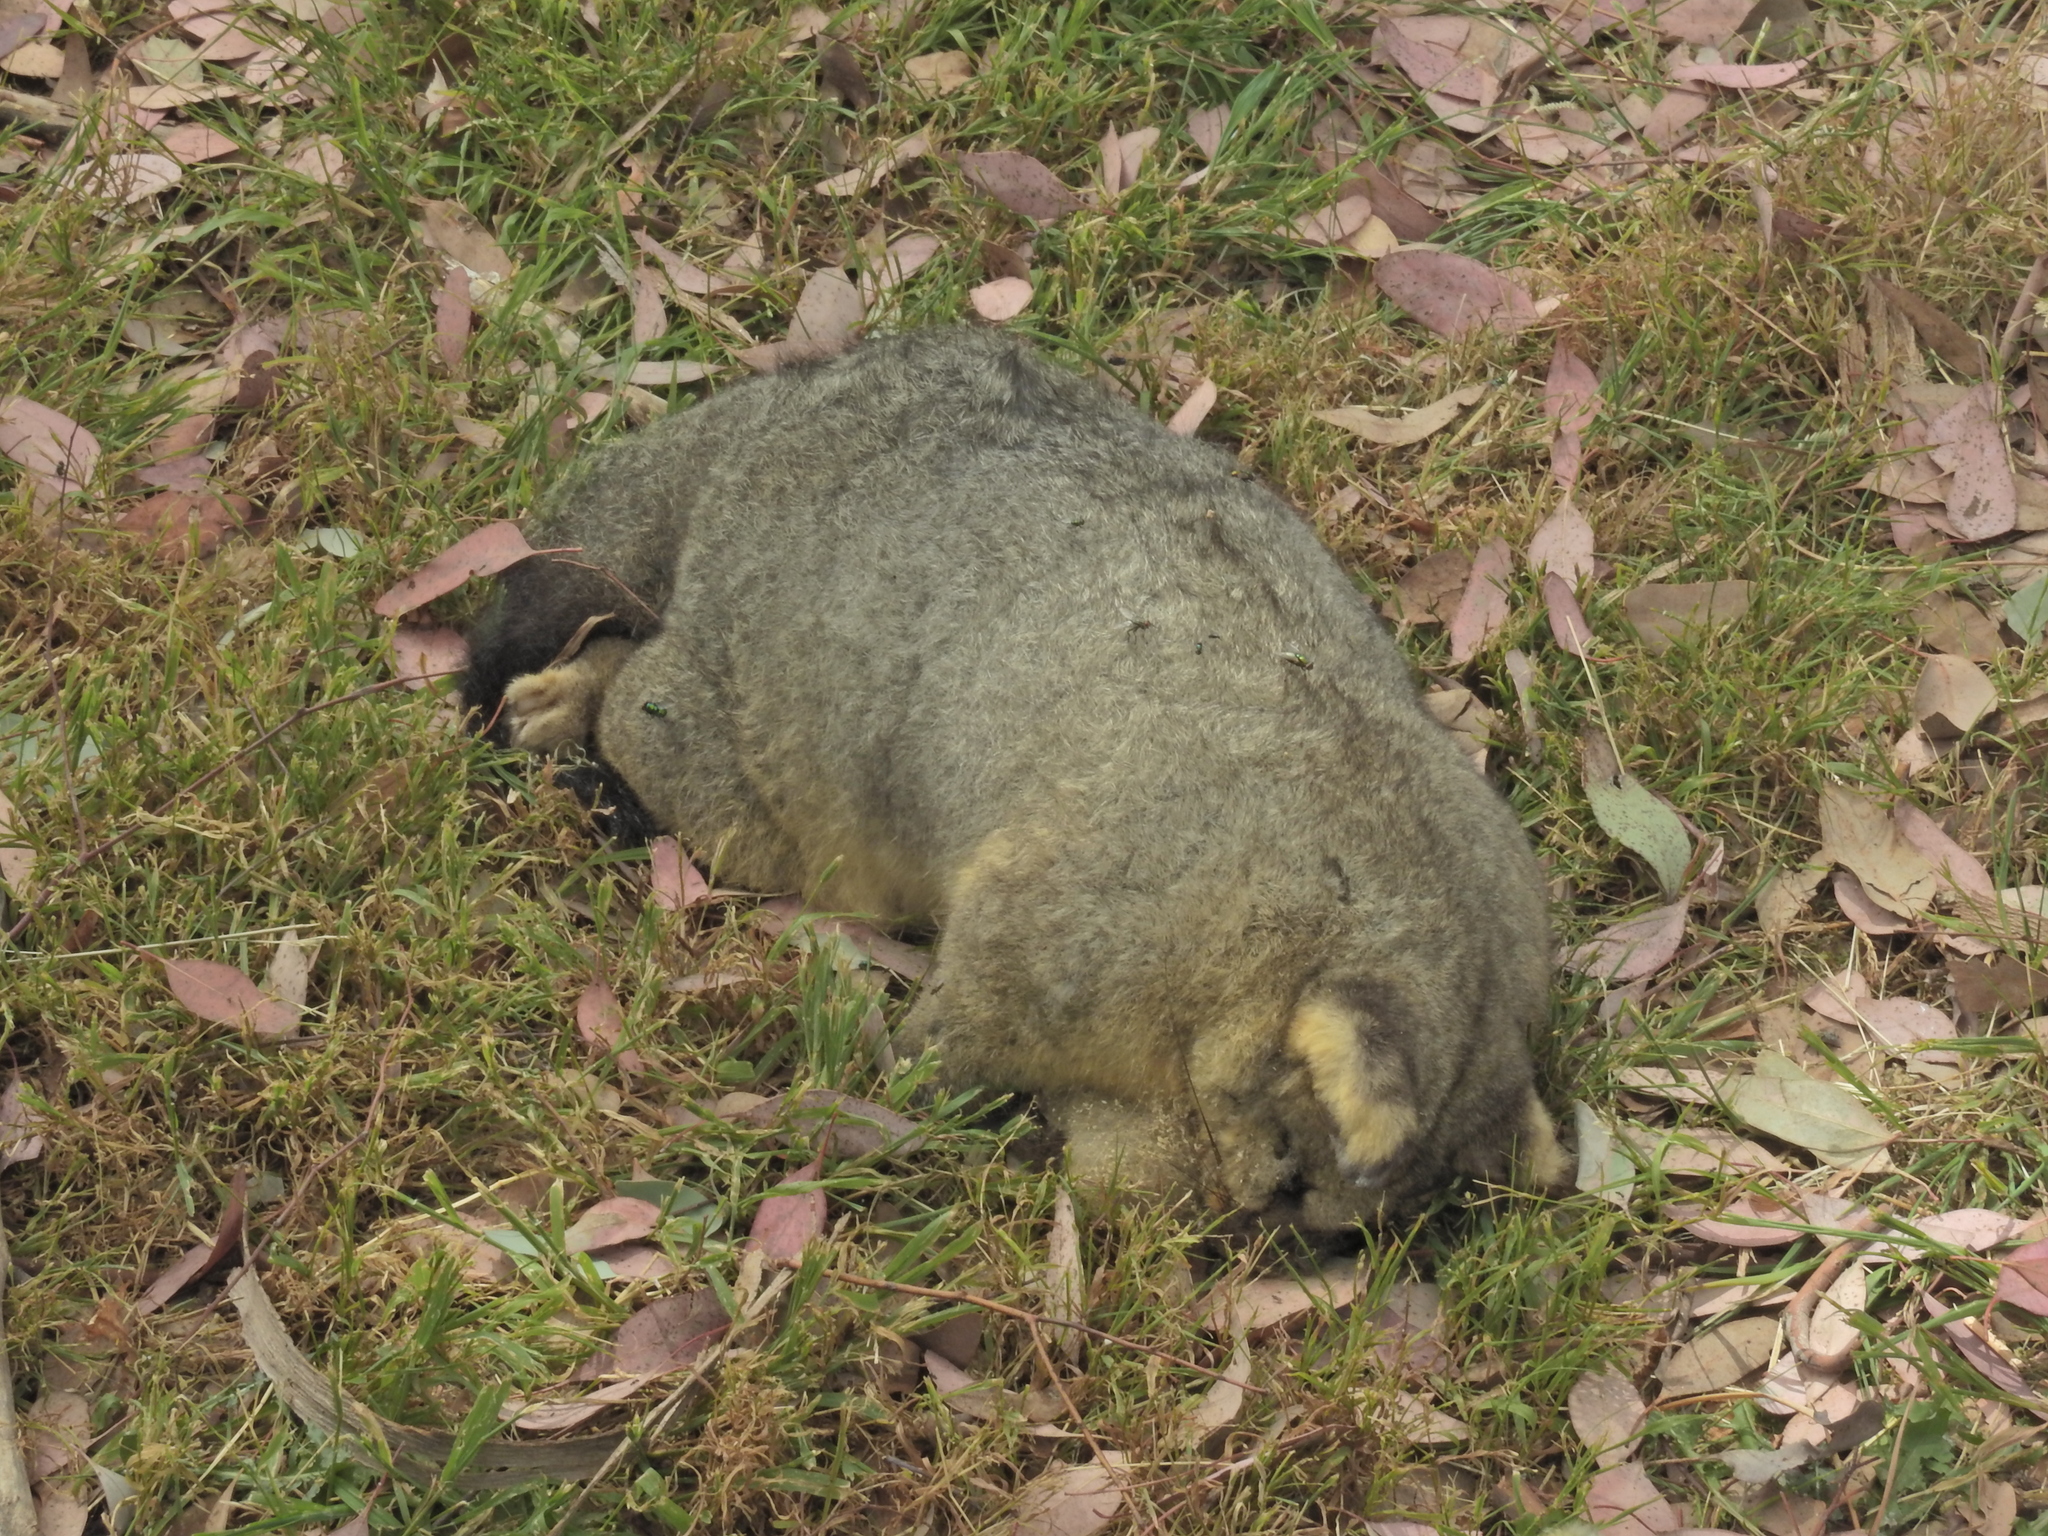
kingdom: Animalia
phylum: Chordata
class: Mammalia
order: Diprotodontia
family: Phalangeridae
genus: Trichosurus
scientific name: Trichosurus vulpecula
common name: Common brushtail
